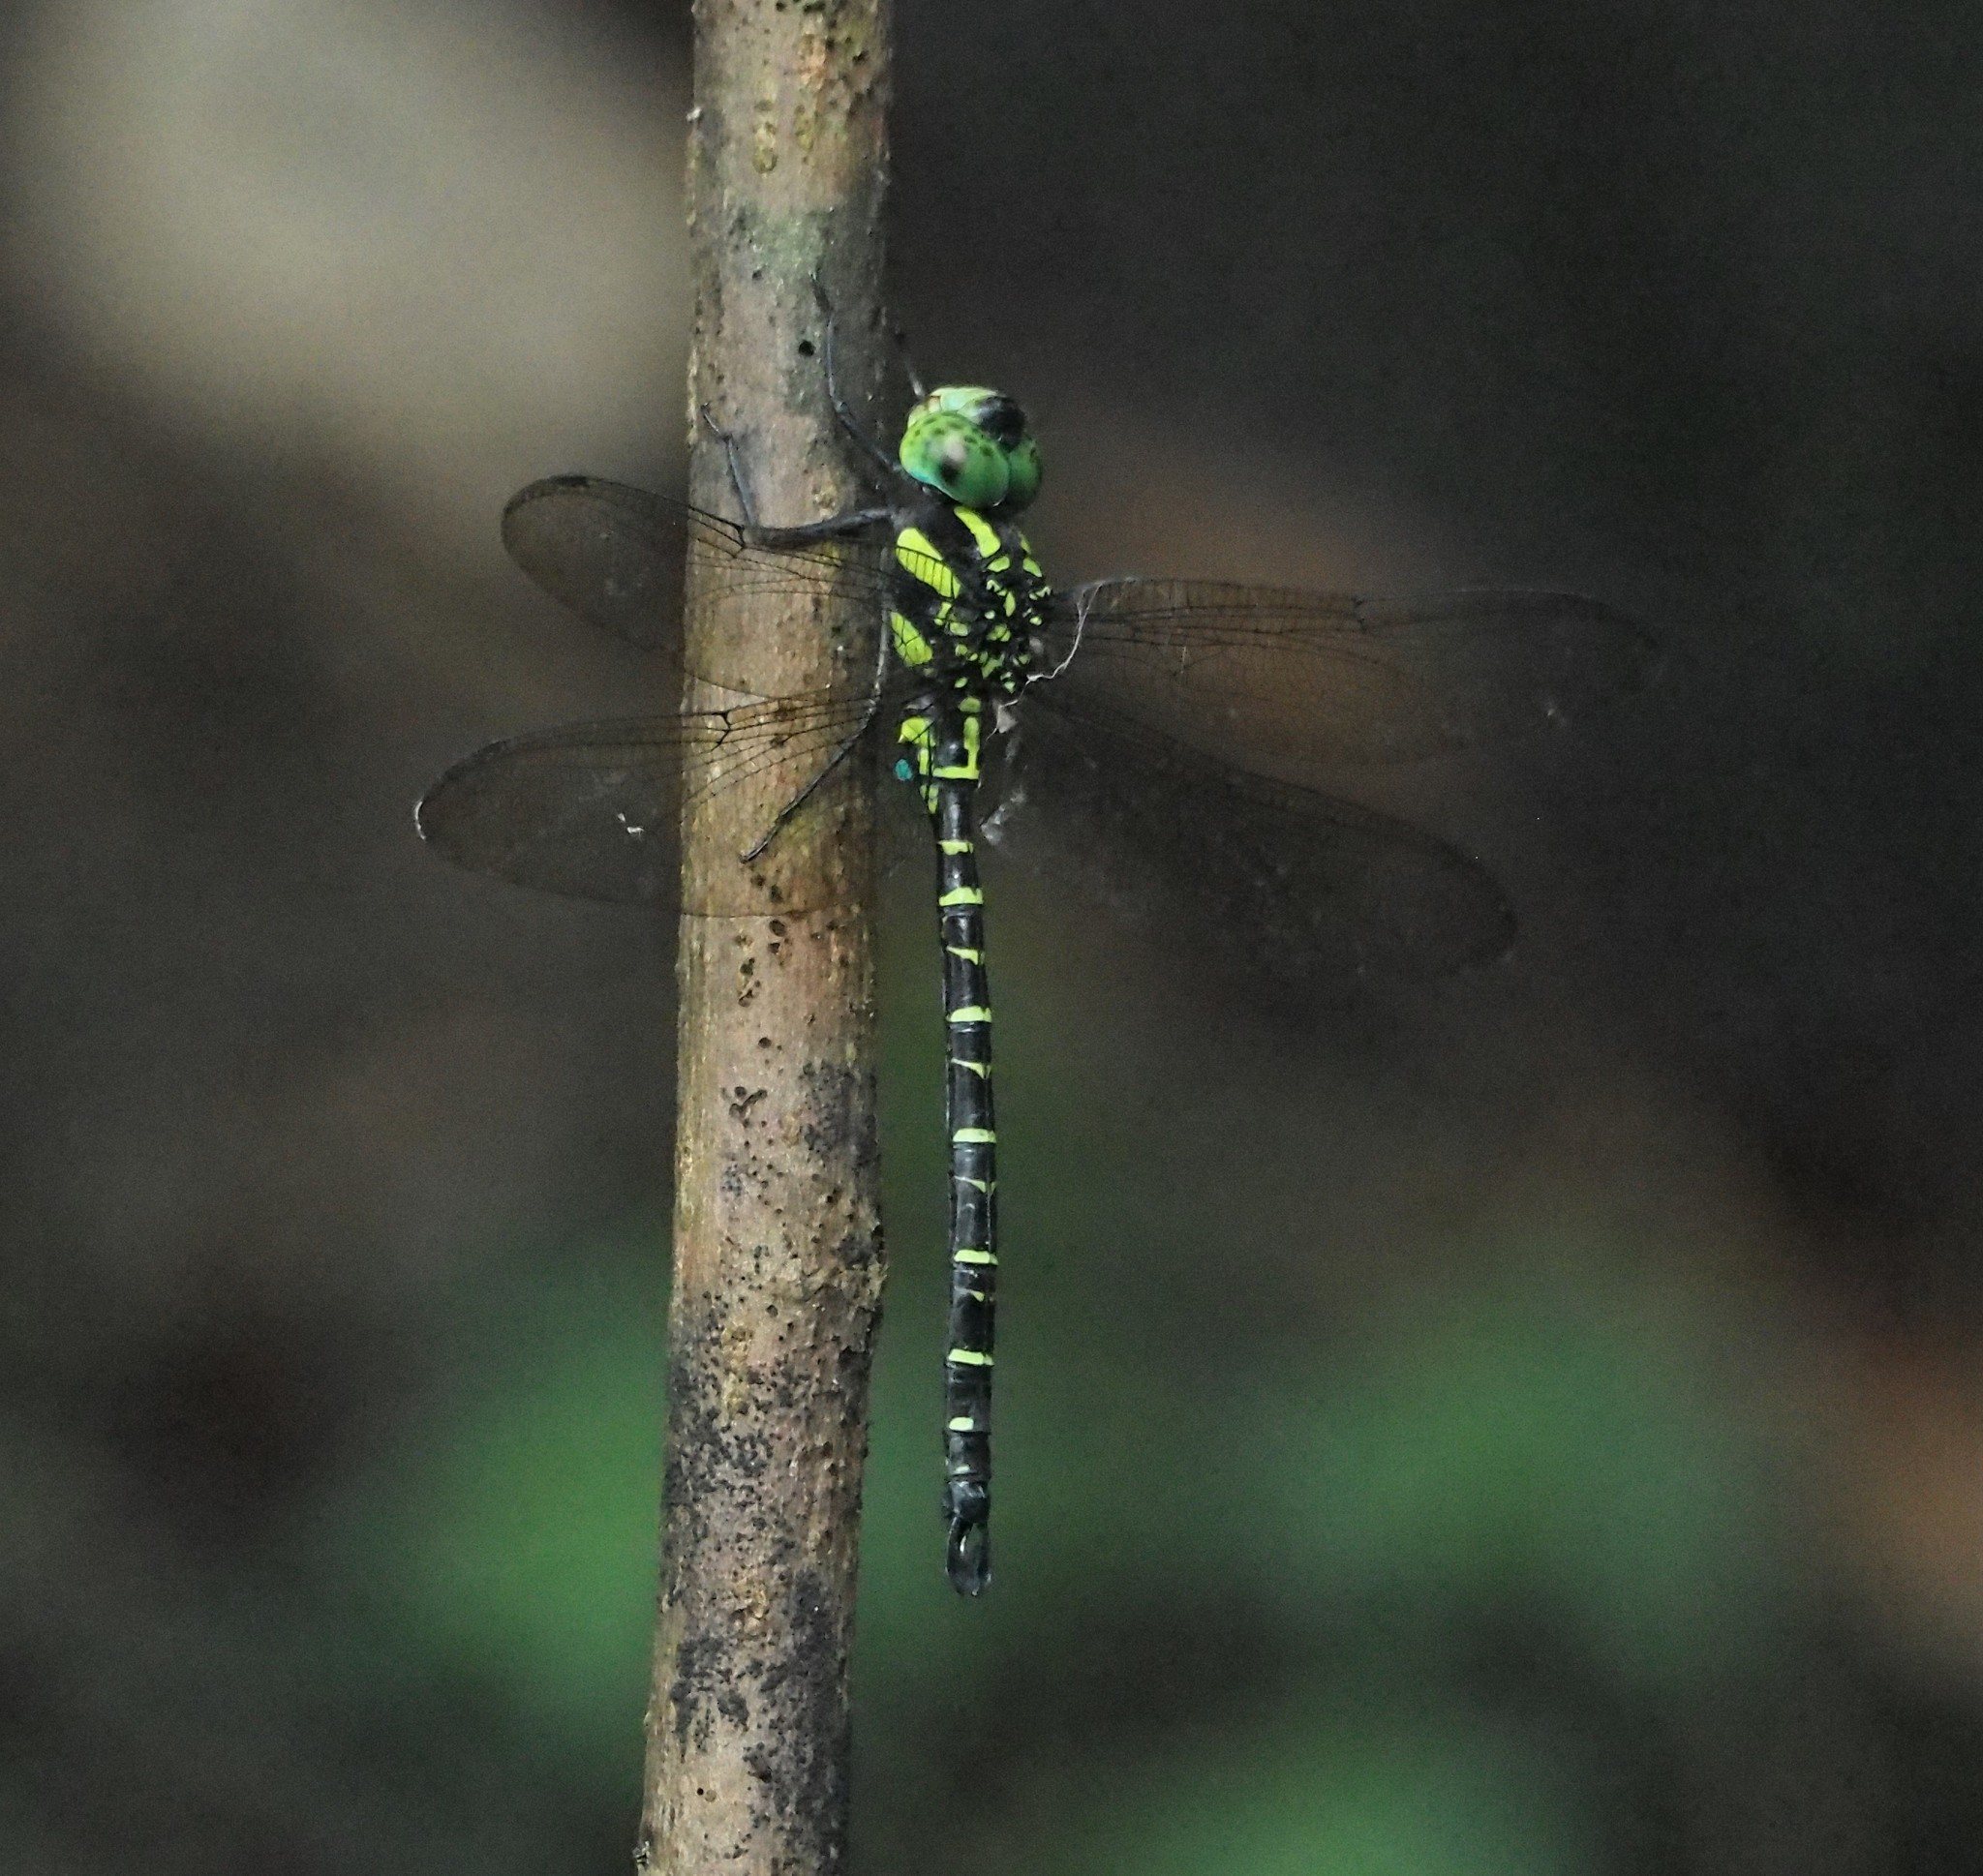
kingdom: Animalia
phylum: Arthropoda
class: Insecta
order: Odonata
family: Aeshnidae
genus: Indaeschna
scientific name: Indaeschna
